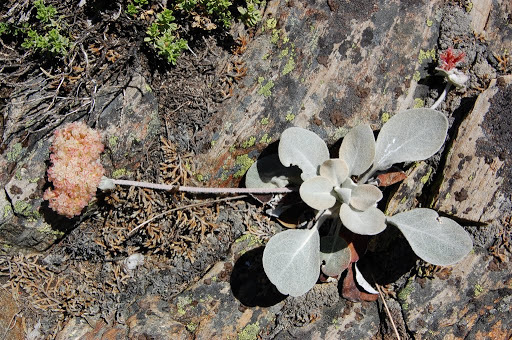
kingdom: Plantae
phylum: Tracheophyta
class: Magnoliopsida
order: Caryophyllales
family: Polygonaceae
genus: Eriogonum
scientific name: Eriogonum lobbii
